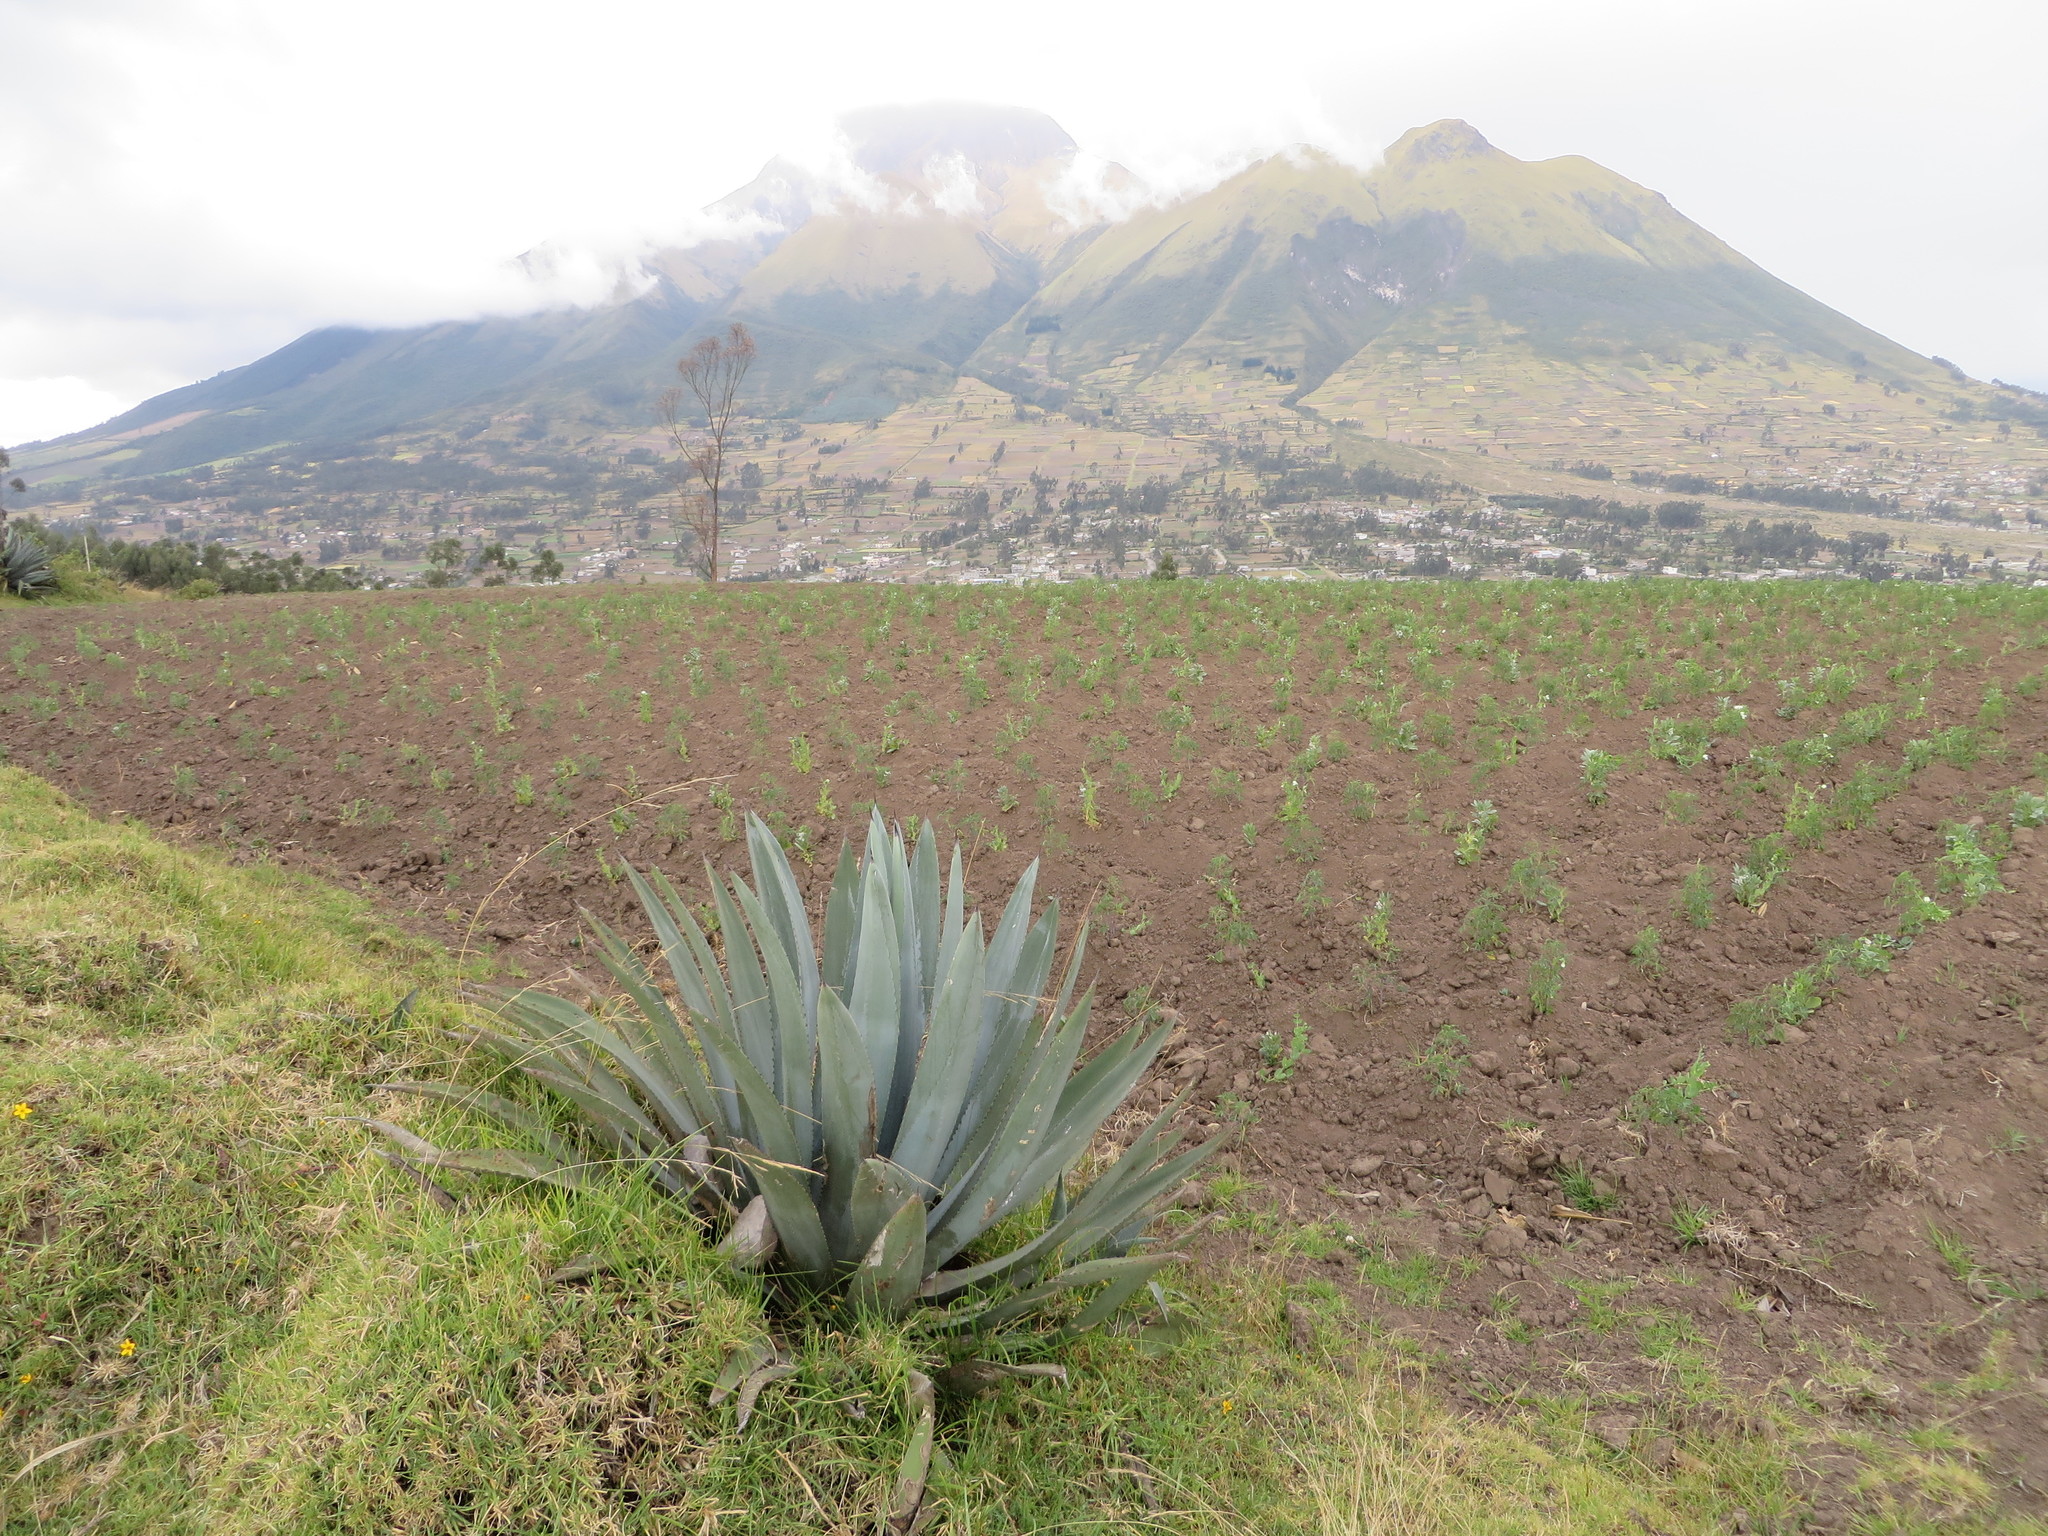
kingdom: Plantae
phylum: Tracheophyta
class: Liliopsida
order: Asparagales
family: Asparagaceae
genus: Agave
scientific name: Agave americana
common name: Centuryplant
